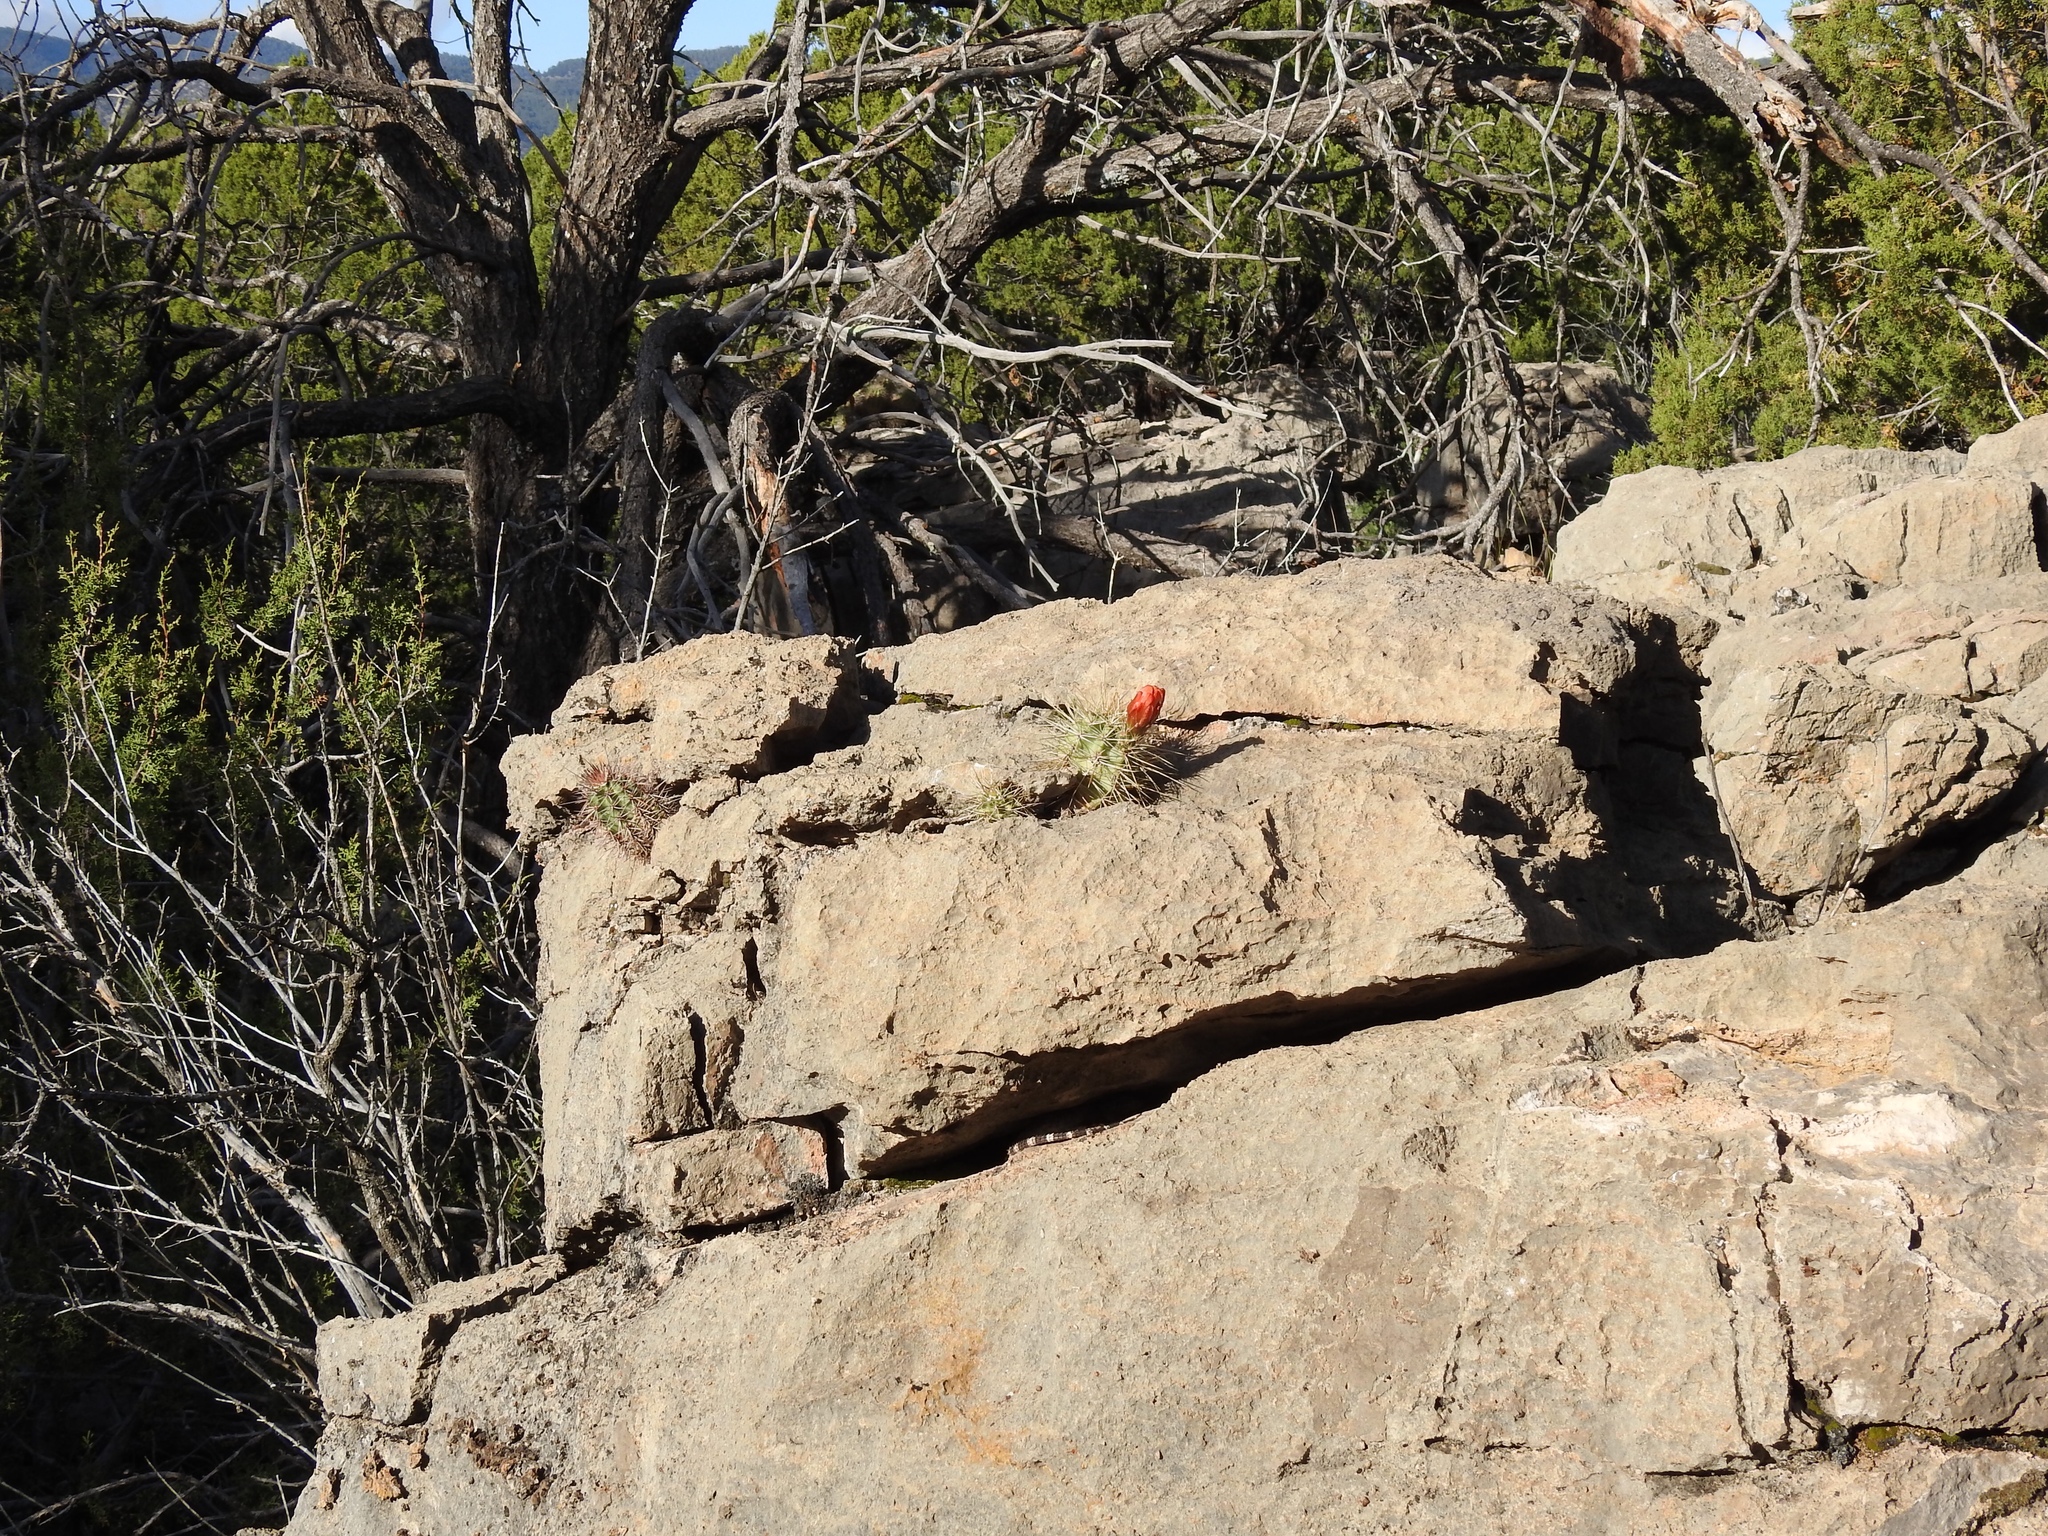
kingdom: Plantae
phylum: Tracheophyta
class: Magnoliopsida
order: Caryophyllales
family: Cactaceae
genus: Echinocereus
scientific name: Echinocereus coccineus
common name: Scarlet hedgehog cactus
